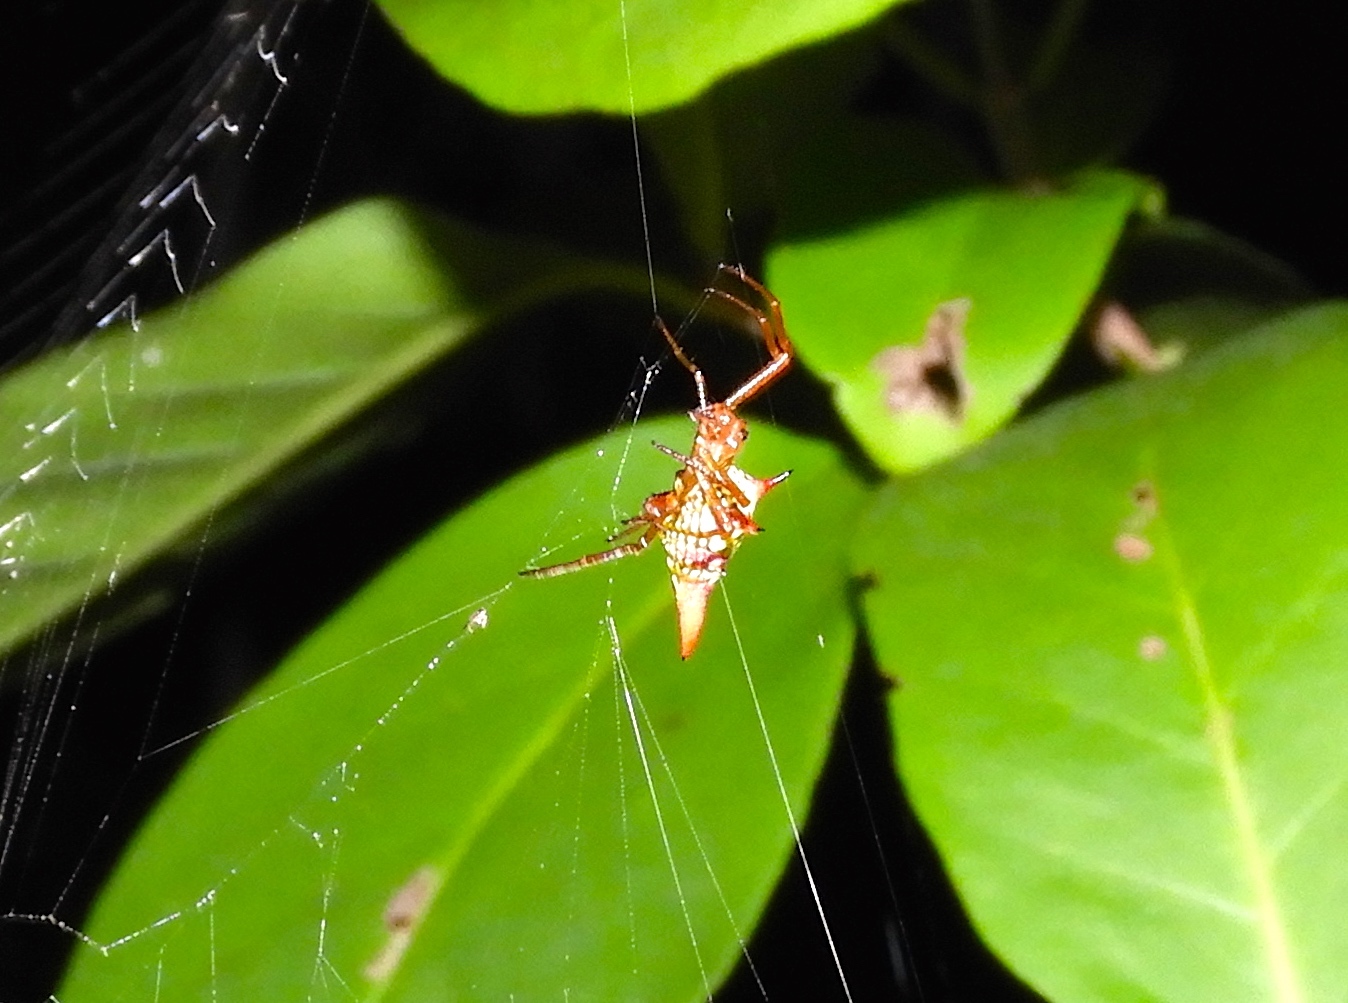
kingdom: Animalia
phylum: Arthropoda
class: Arachnida
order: Araneae
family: Araneidae
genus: Micrathena
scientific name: Micrathena sagittata
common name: Orb weavers
